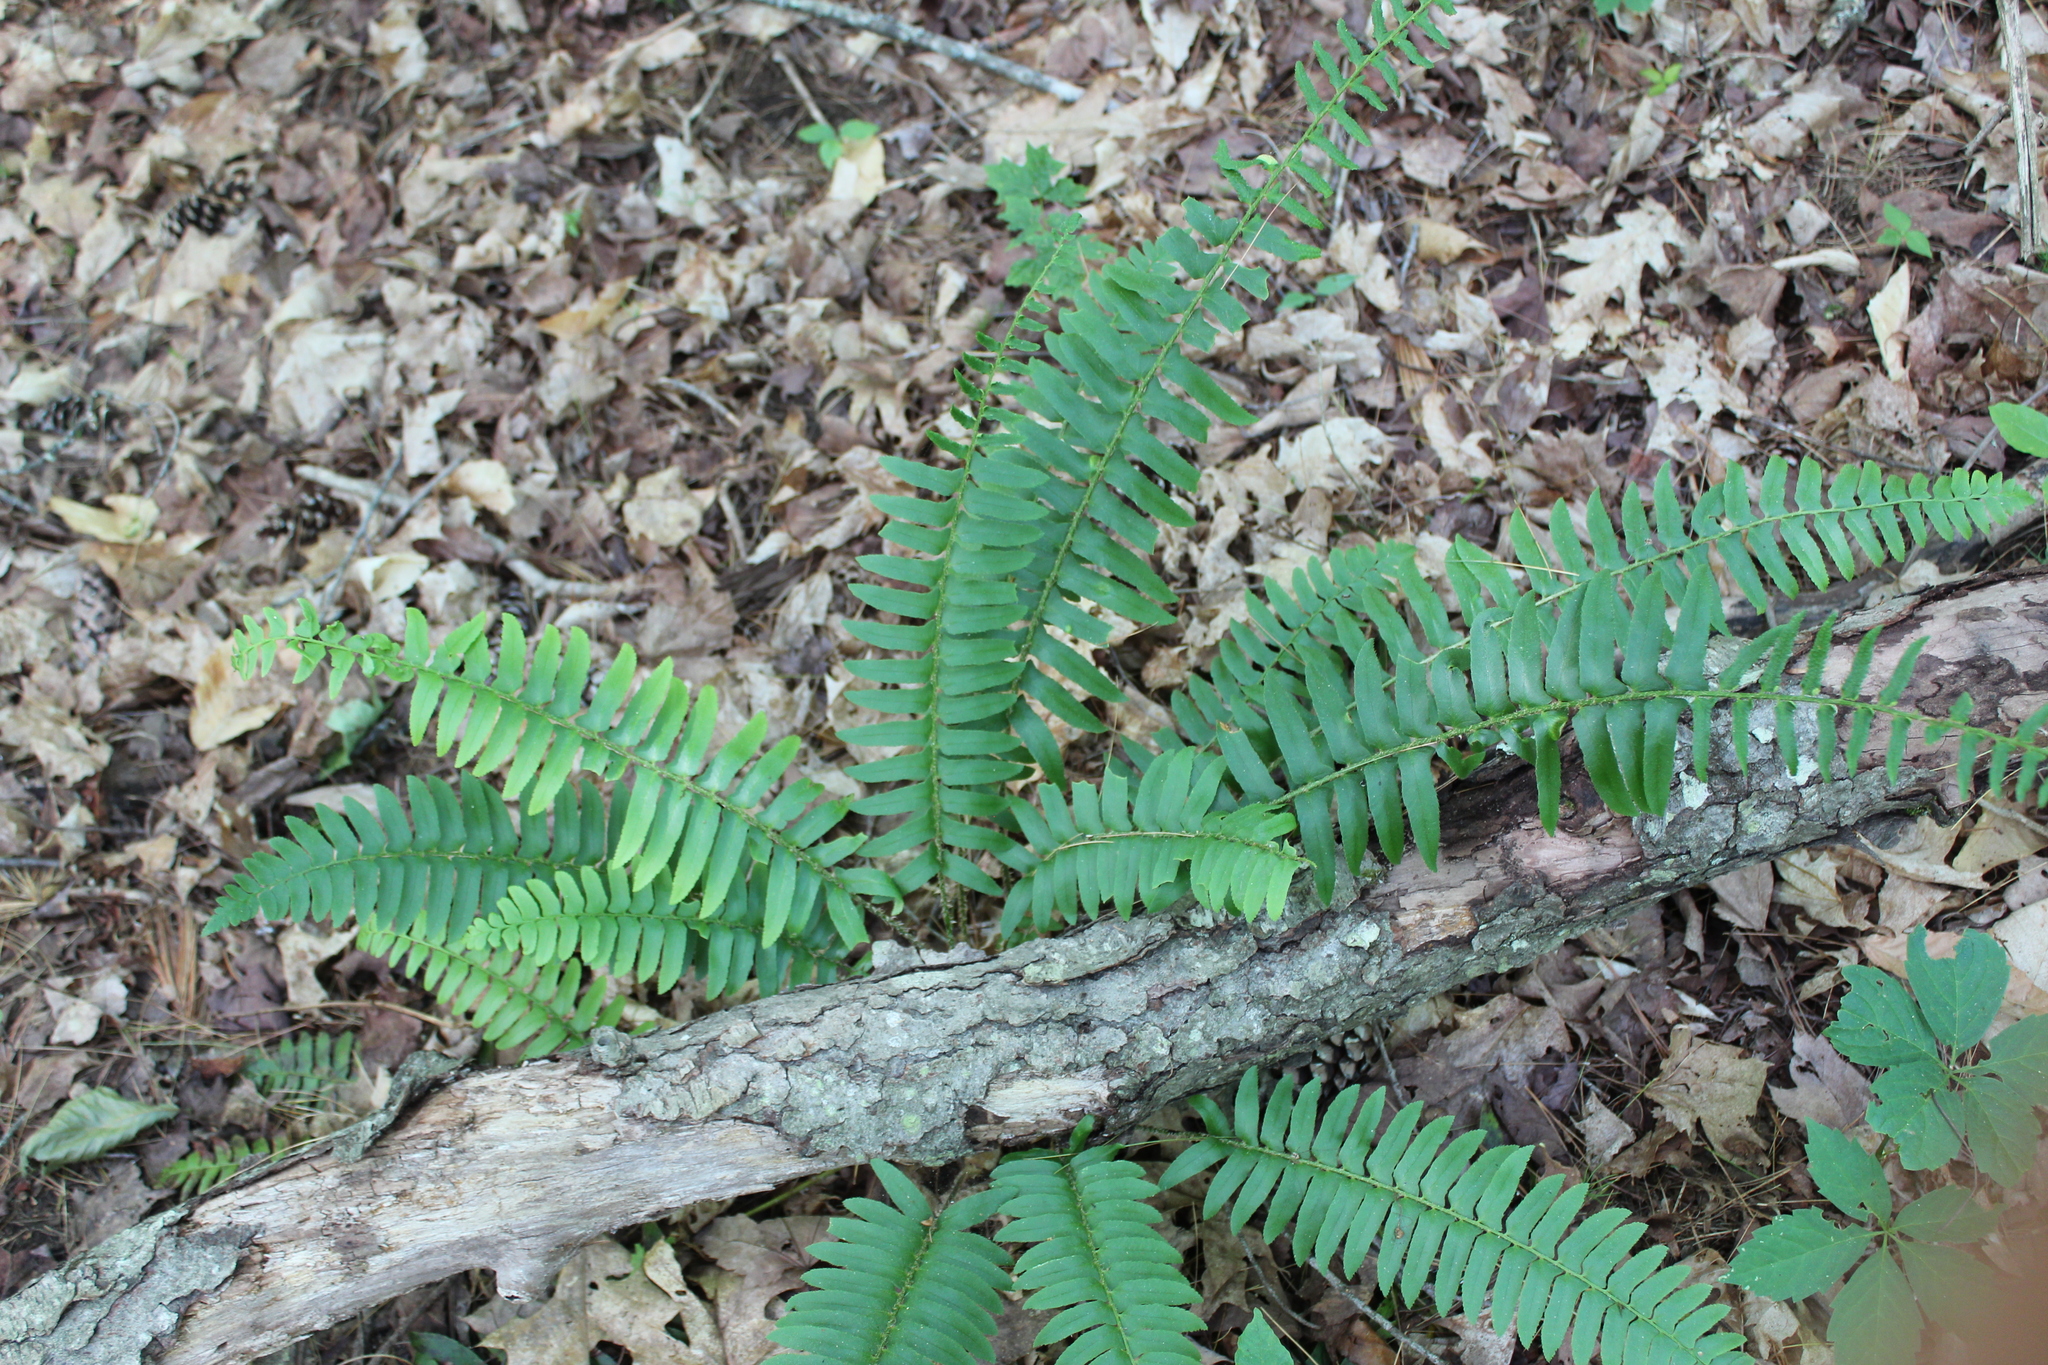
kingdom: Plantae
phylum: Tracheophyta
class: Polypodiopsida
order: Polypodiales
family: Dryopteridaceae
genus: Polystichum
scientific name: Polystichum acrostichoides
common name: Christmas fern
